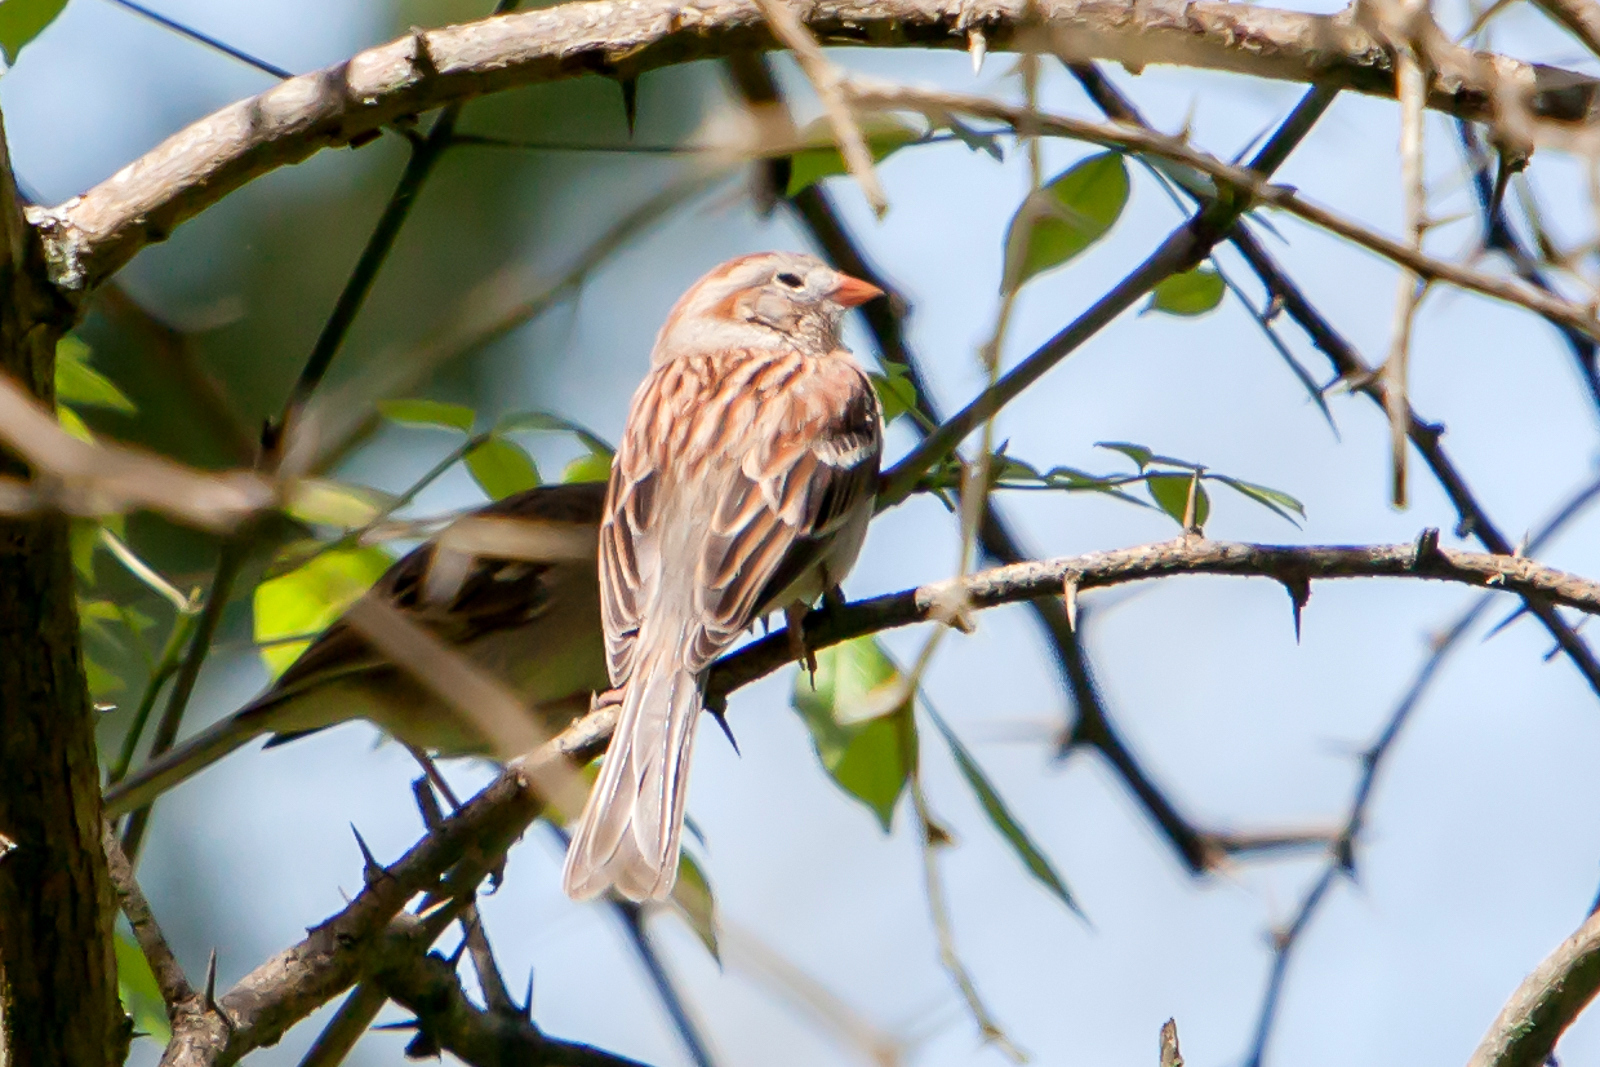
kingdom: Animalia
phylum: Chordata
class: Aves
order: Passeriformes
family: Passerellidae
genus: Spizella
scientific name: Spizella pusilla
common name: Field sparrow
